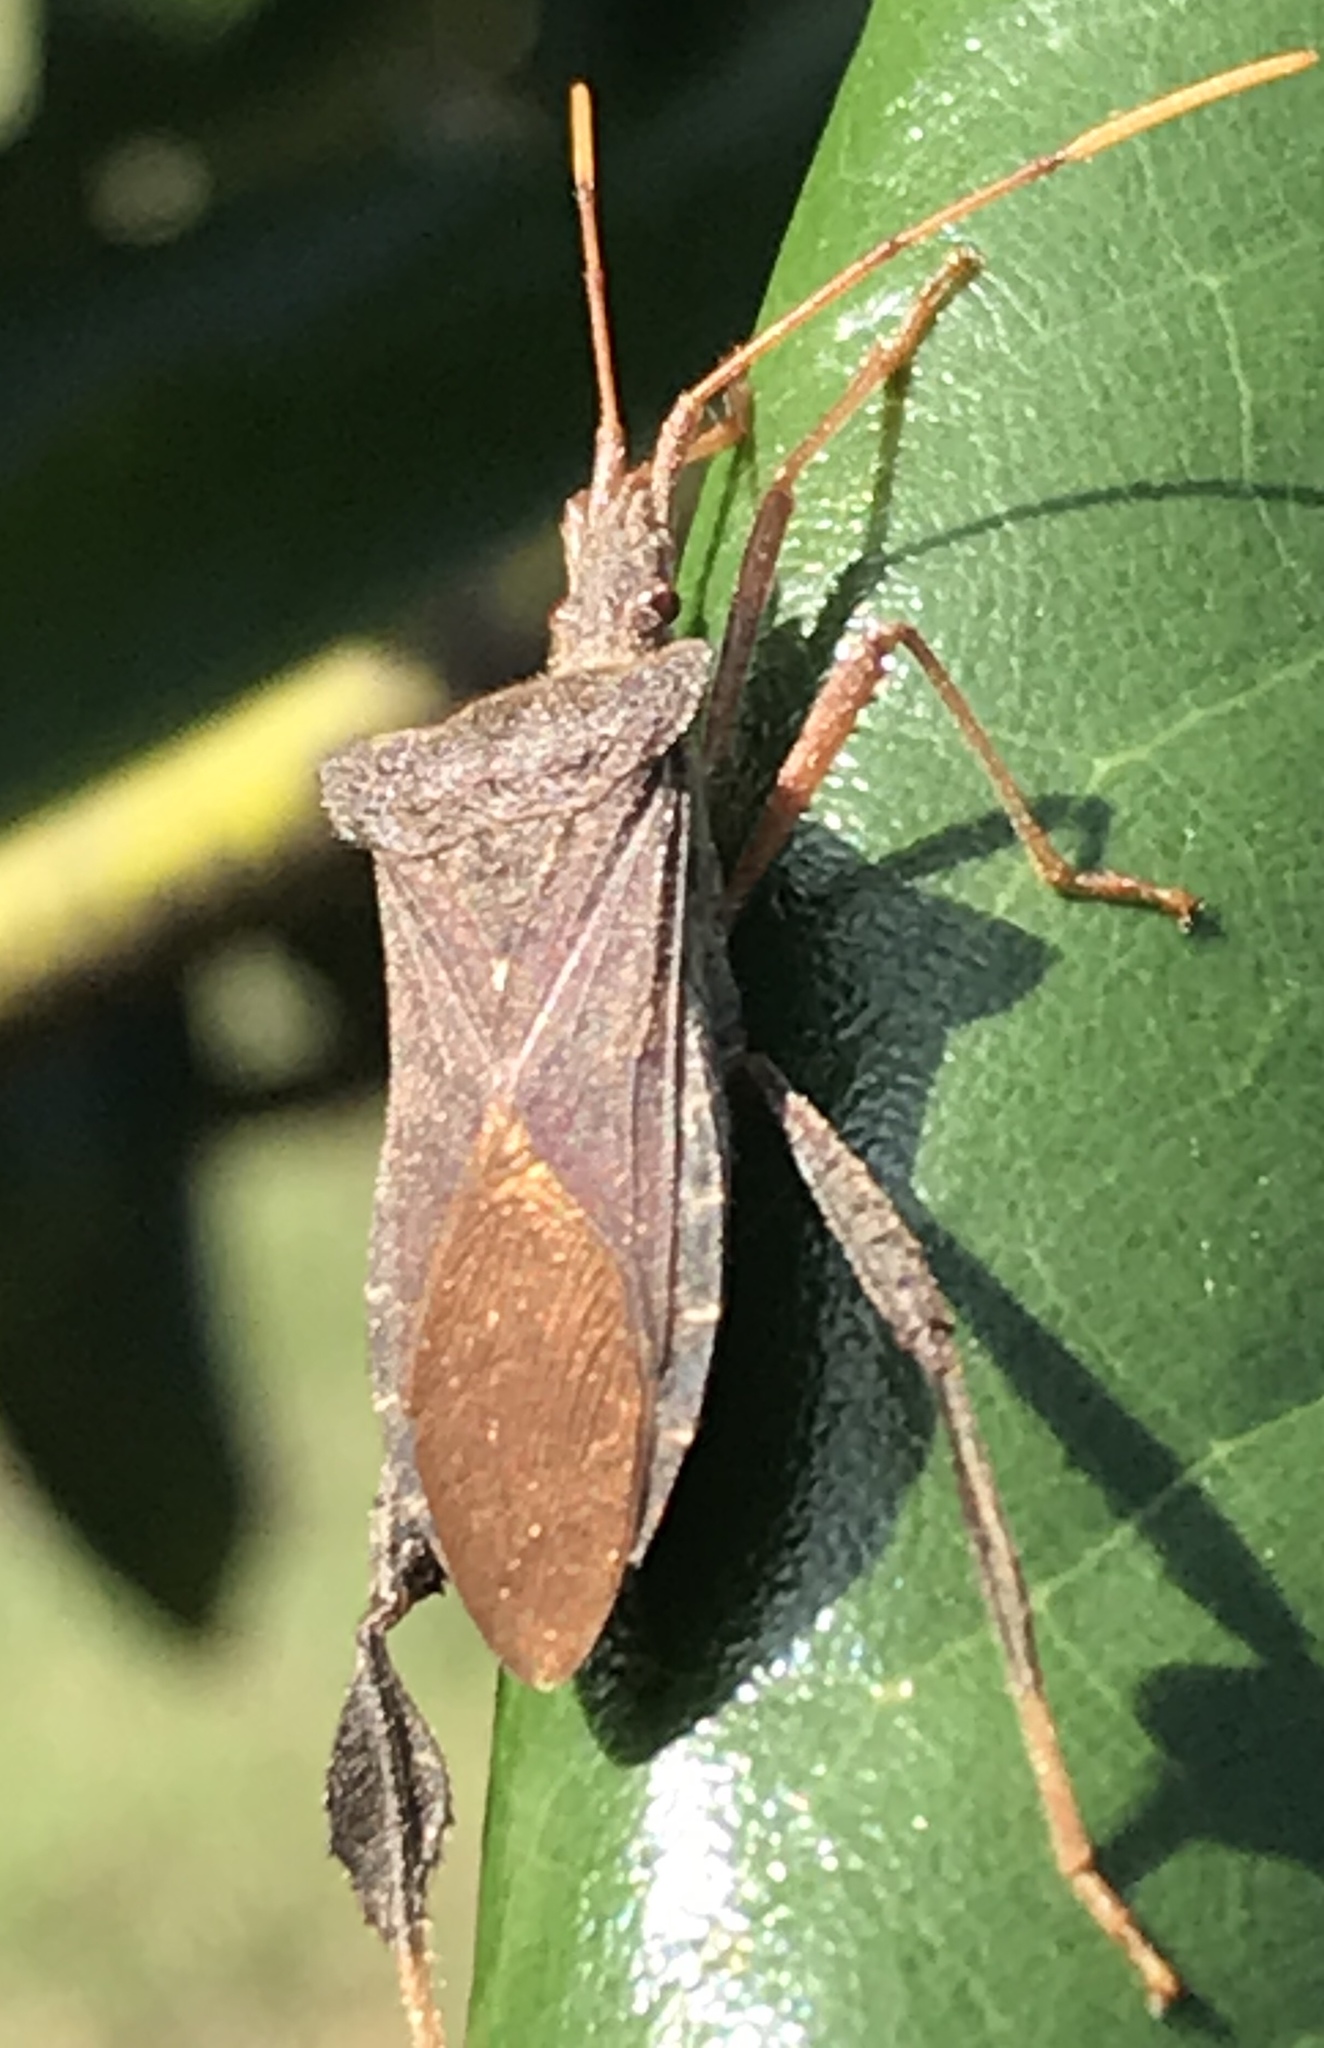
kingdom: Animalia
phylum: Arthropoda
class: Insecta
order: Hemiptera
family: Coreidae
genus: Leptoglossus
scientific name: Leptoglossus fulvicornis
